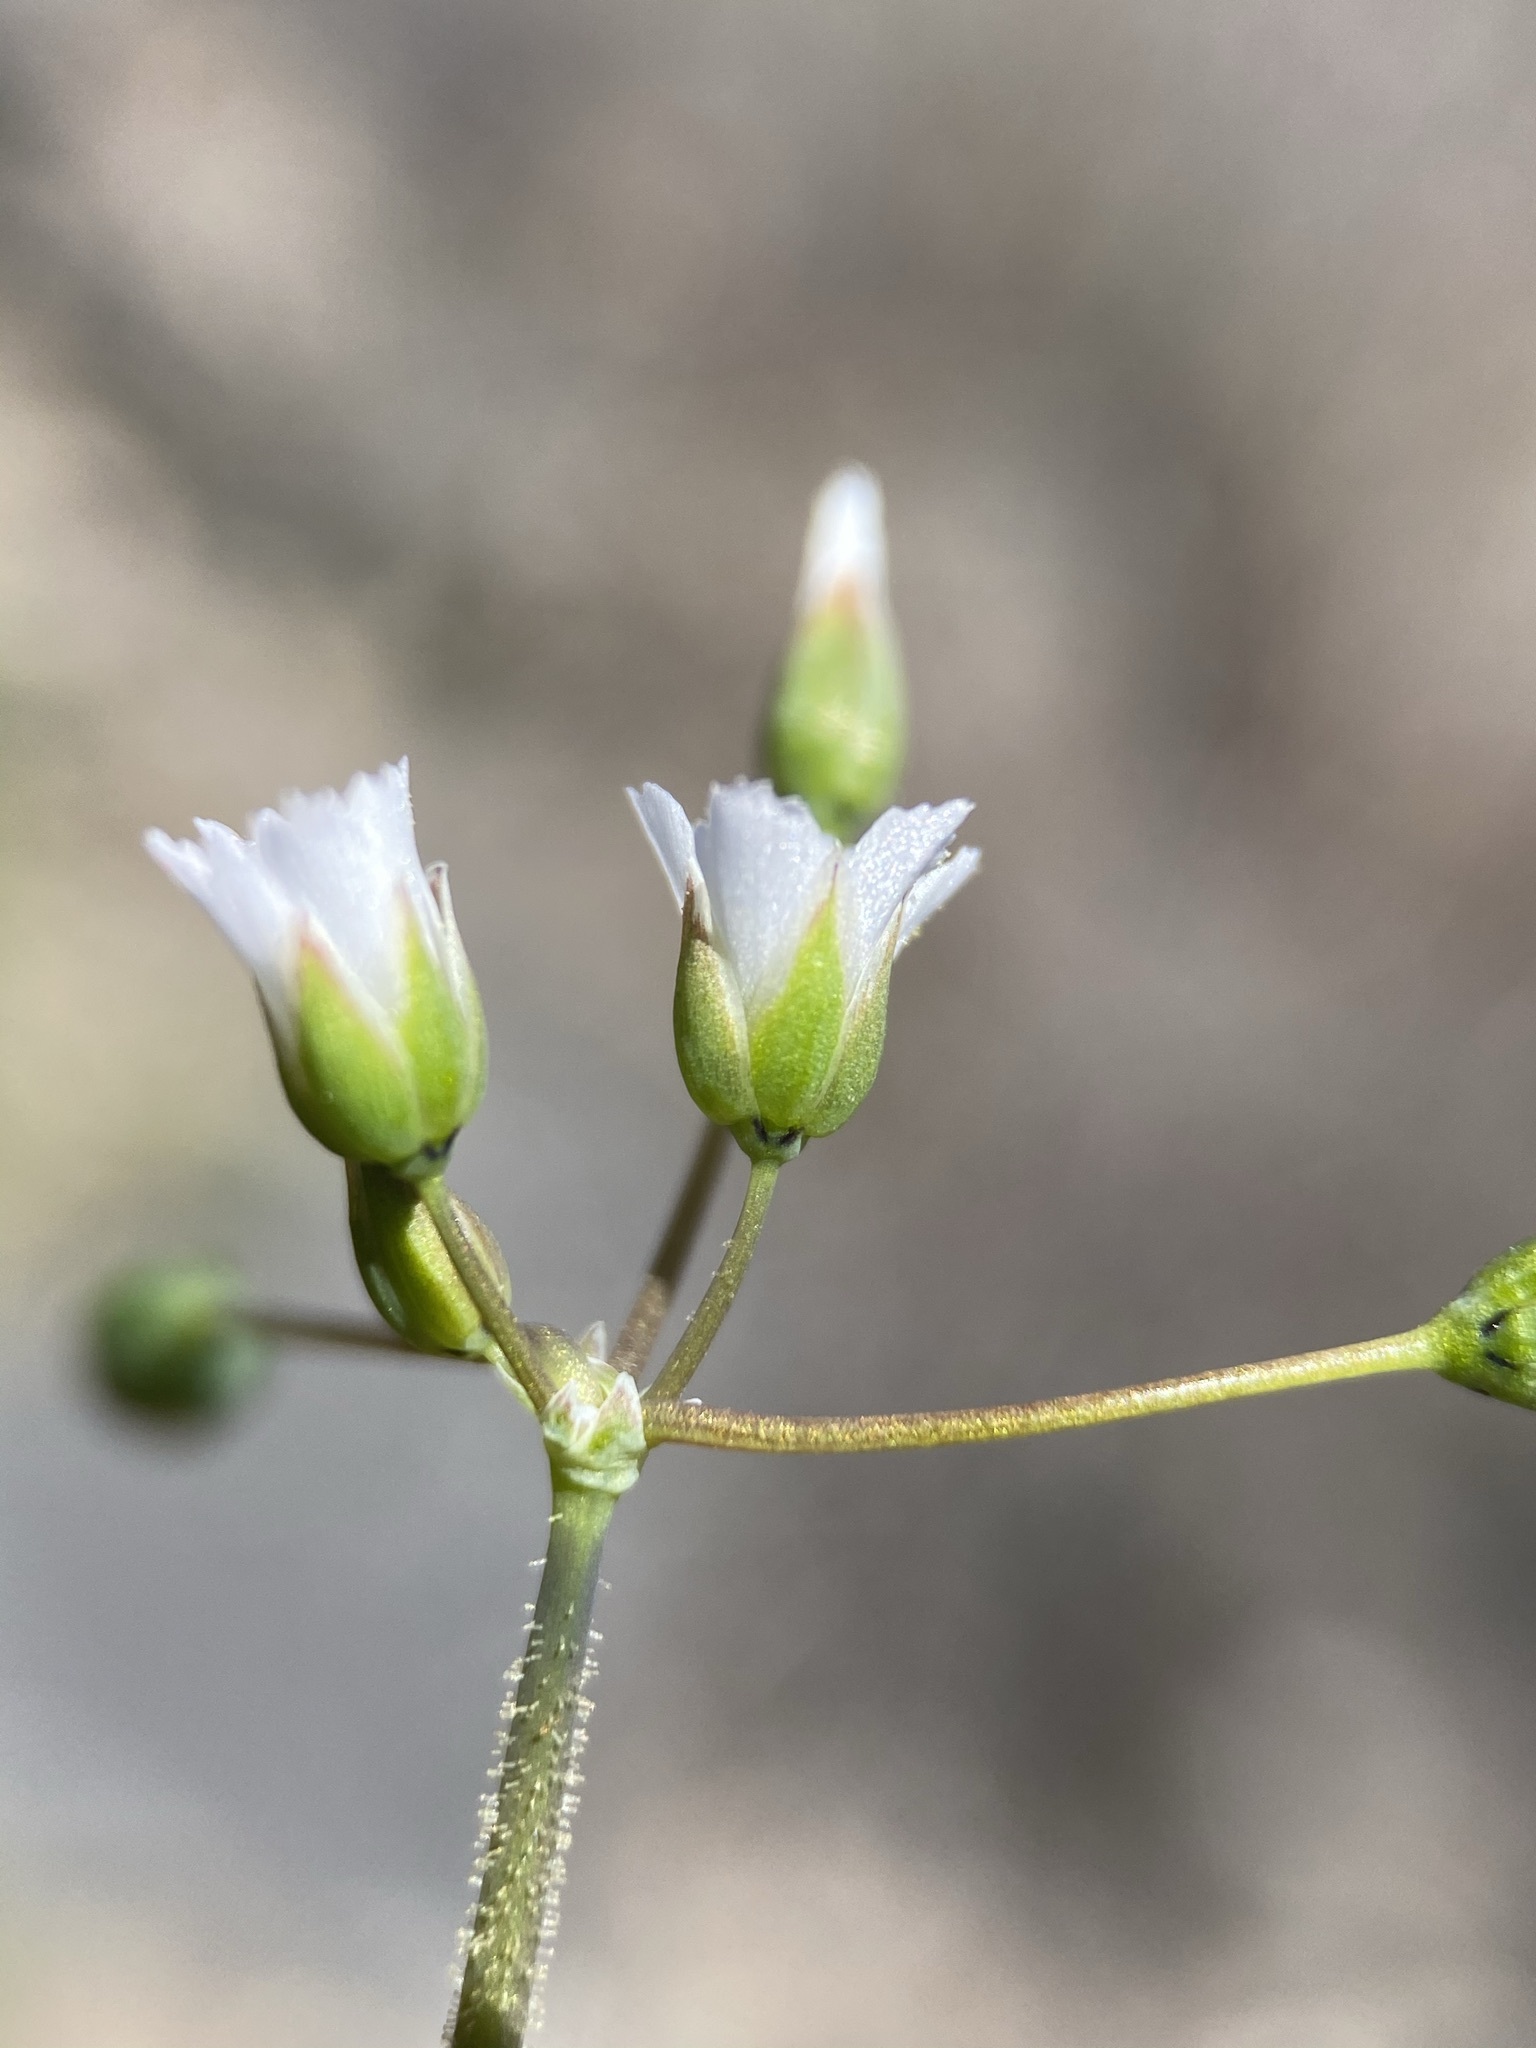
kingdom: Plantae
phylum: Tracheophyta
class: Magnoliopsida
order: Caryophyllales
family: Caryophyllaceae
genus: Holosteum
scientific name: Holosteum umbellatum
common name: Jagged chickweed
